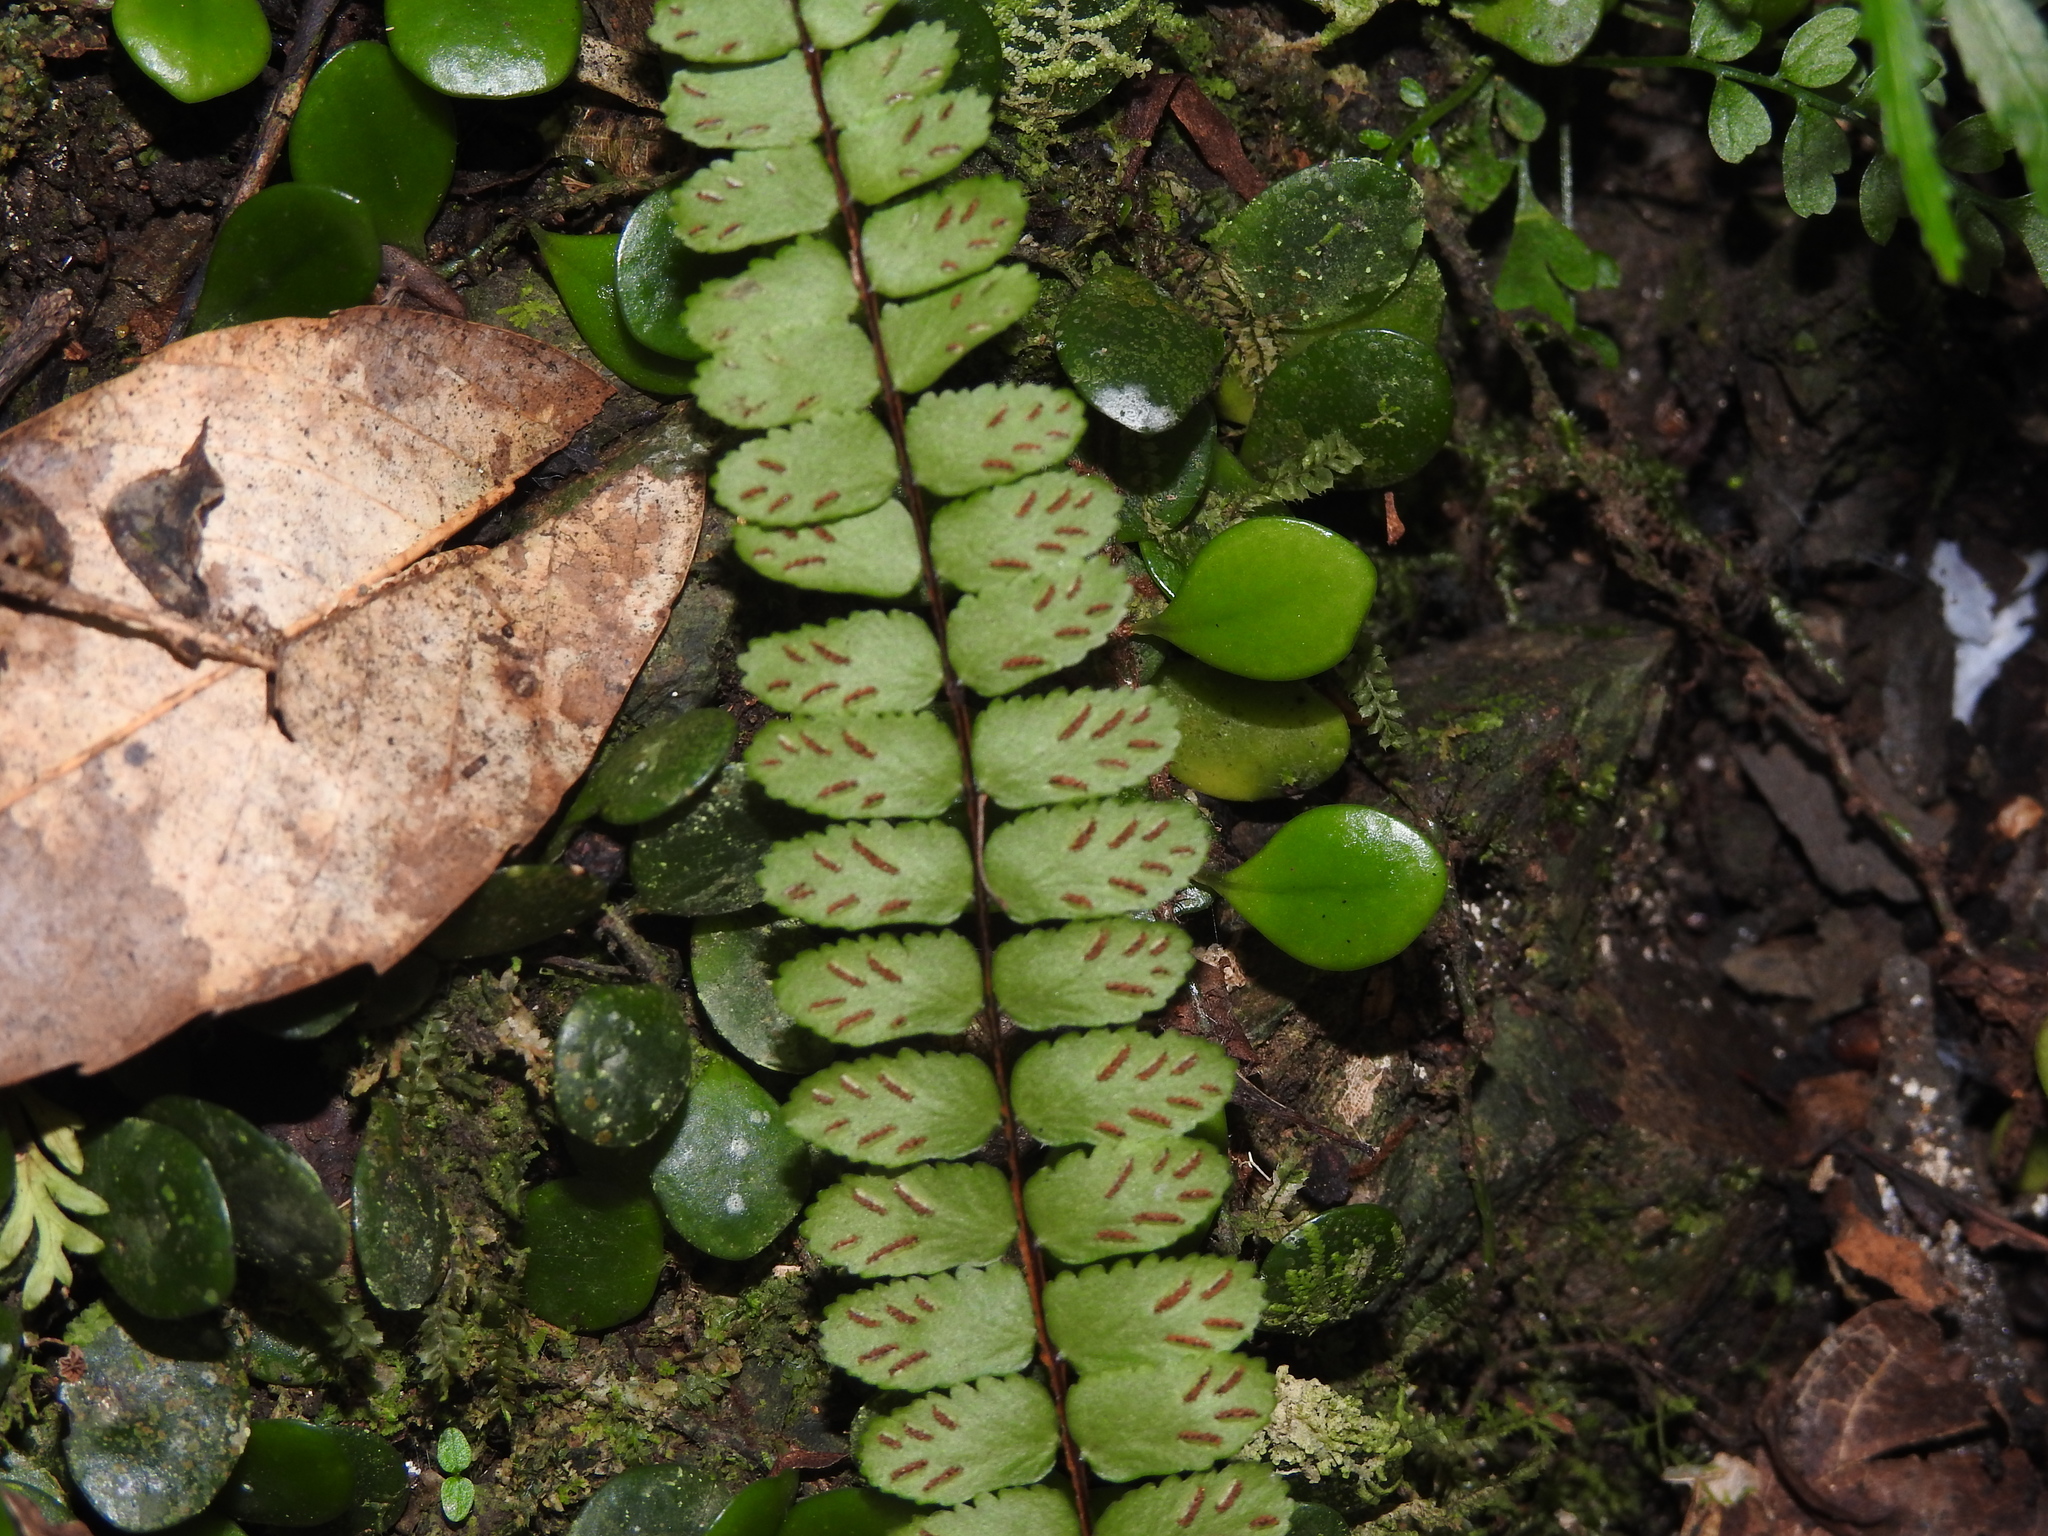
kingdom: Plantae
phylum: Tracheophyta
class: Polypodiopsida
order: Polypodiales
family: Aspleniaceae
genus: Asplenium
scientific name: Asplenium tripteropus
